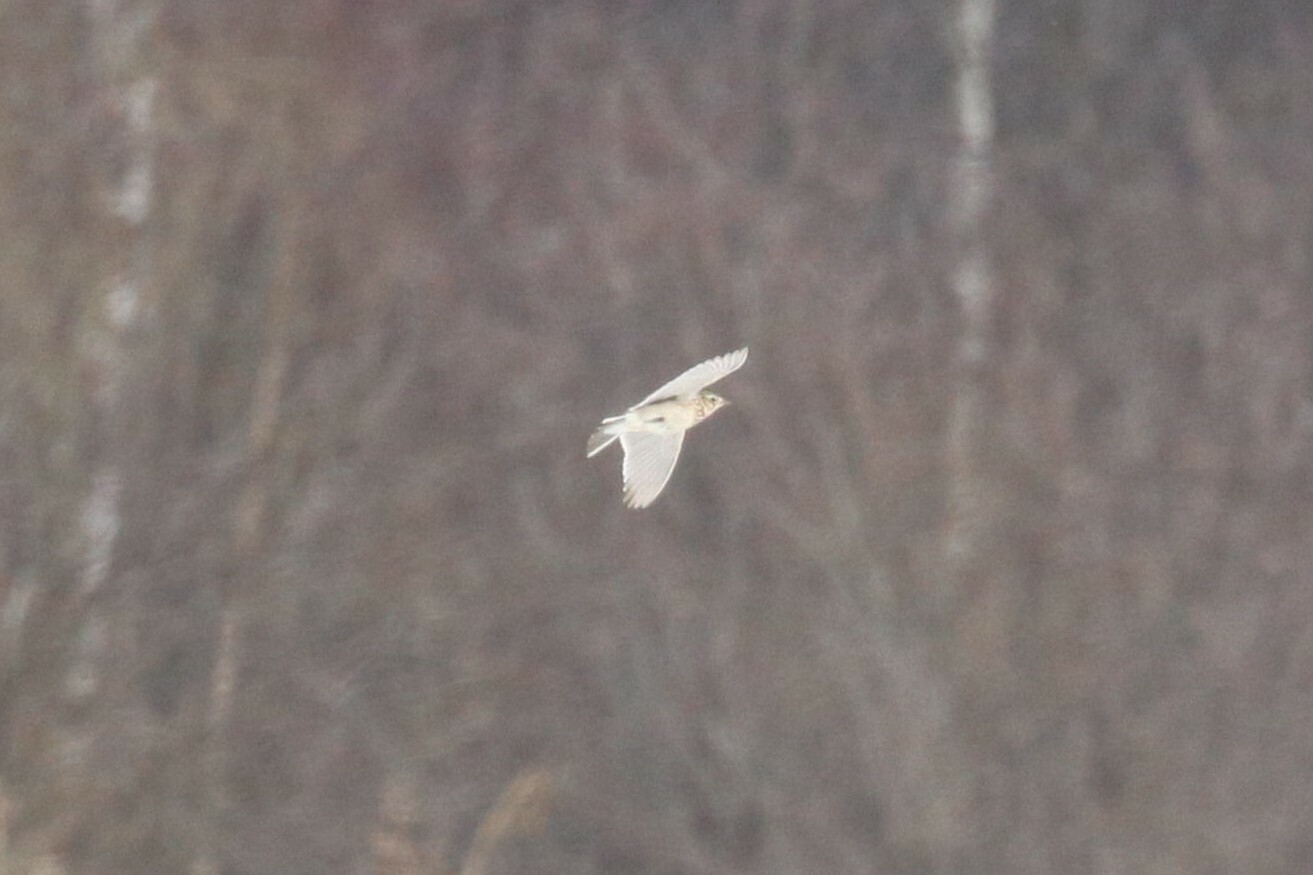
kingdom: Animalia
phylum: Chordata
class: Aves
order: Passeriformes
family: Alaudidae
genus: Alauda
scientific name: Alauda arvensis
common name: Eurasian skylark
